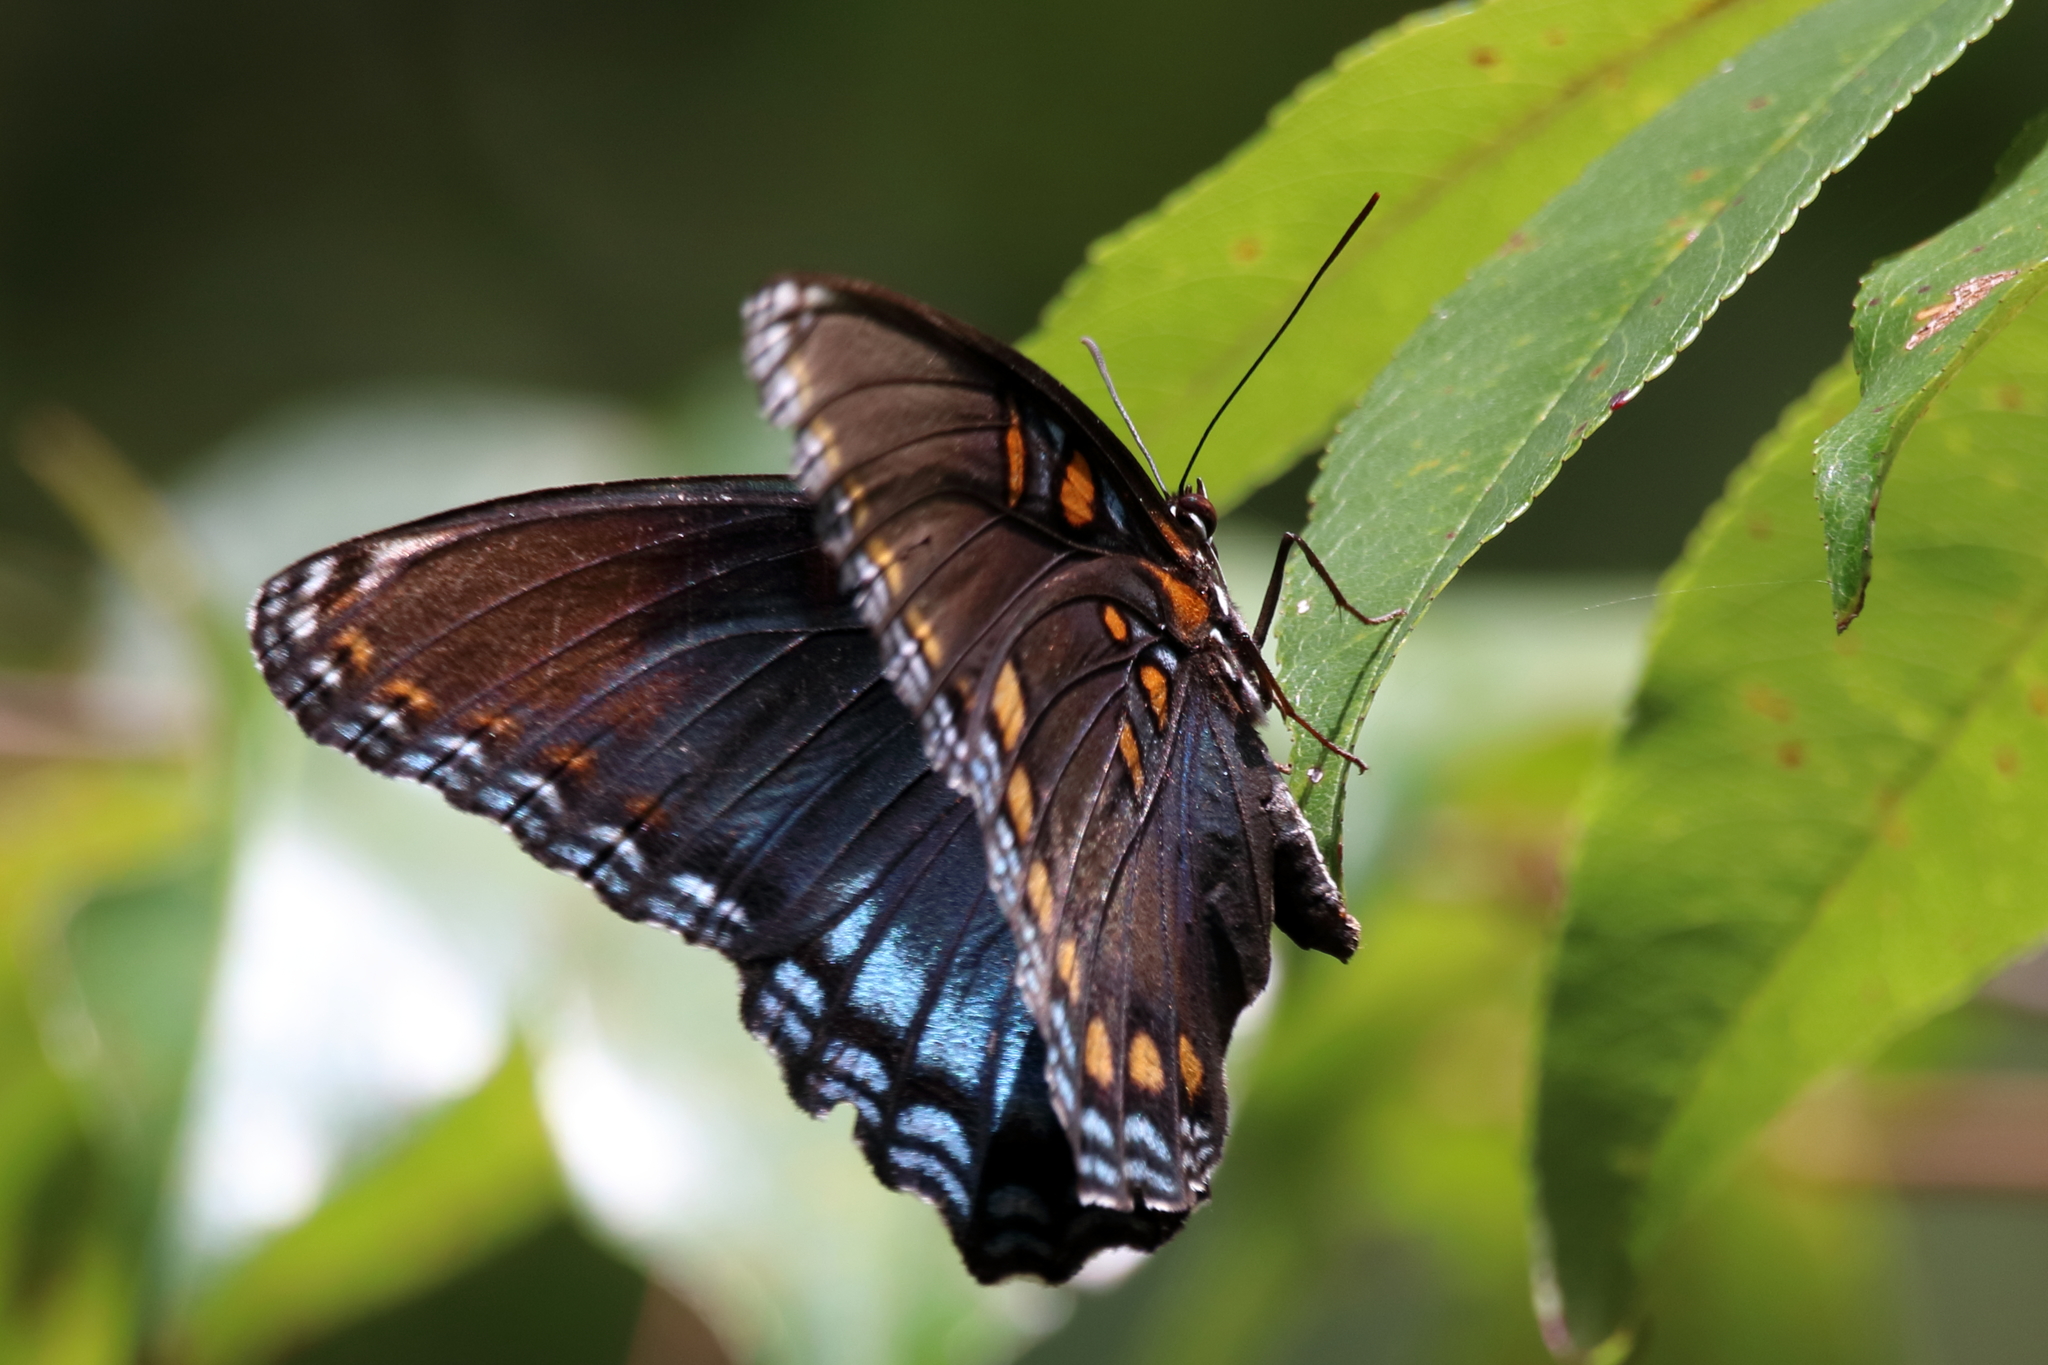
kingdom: Animalia
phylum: Arthropoda
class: Insecta
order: Lepidoptera
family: Nymphalidae
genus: Limenitis
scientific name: Limenitis astyanax
